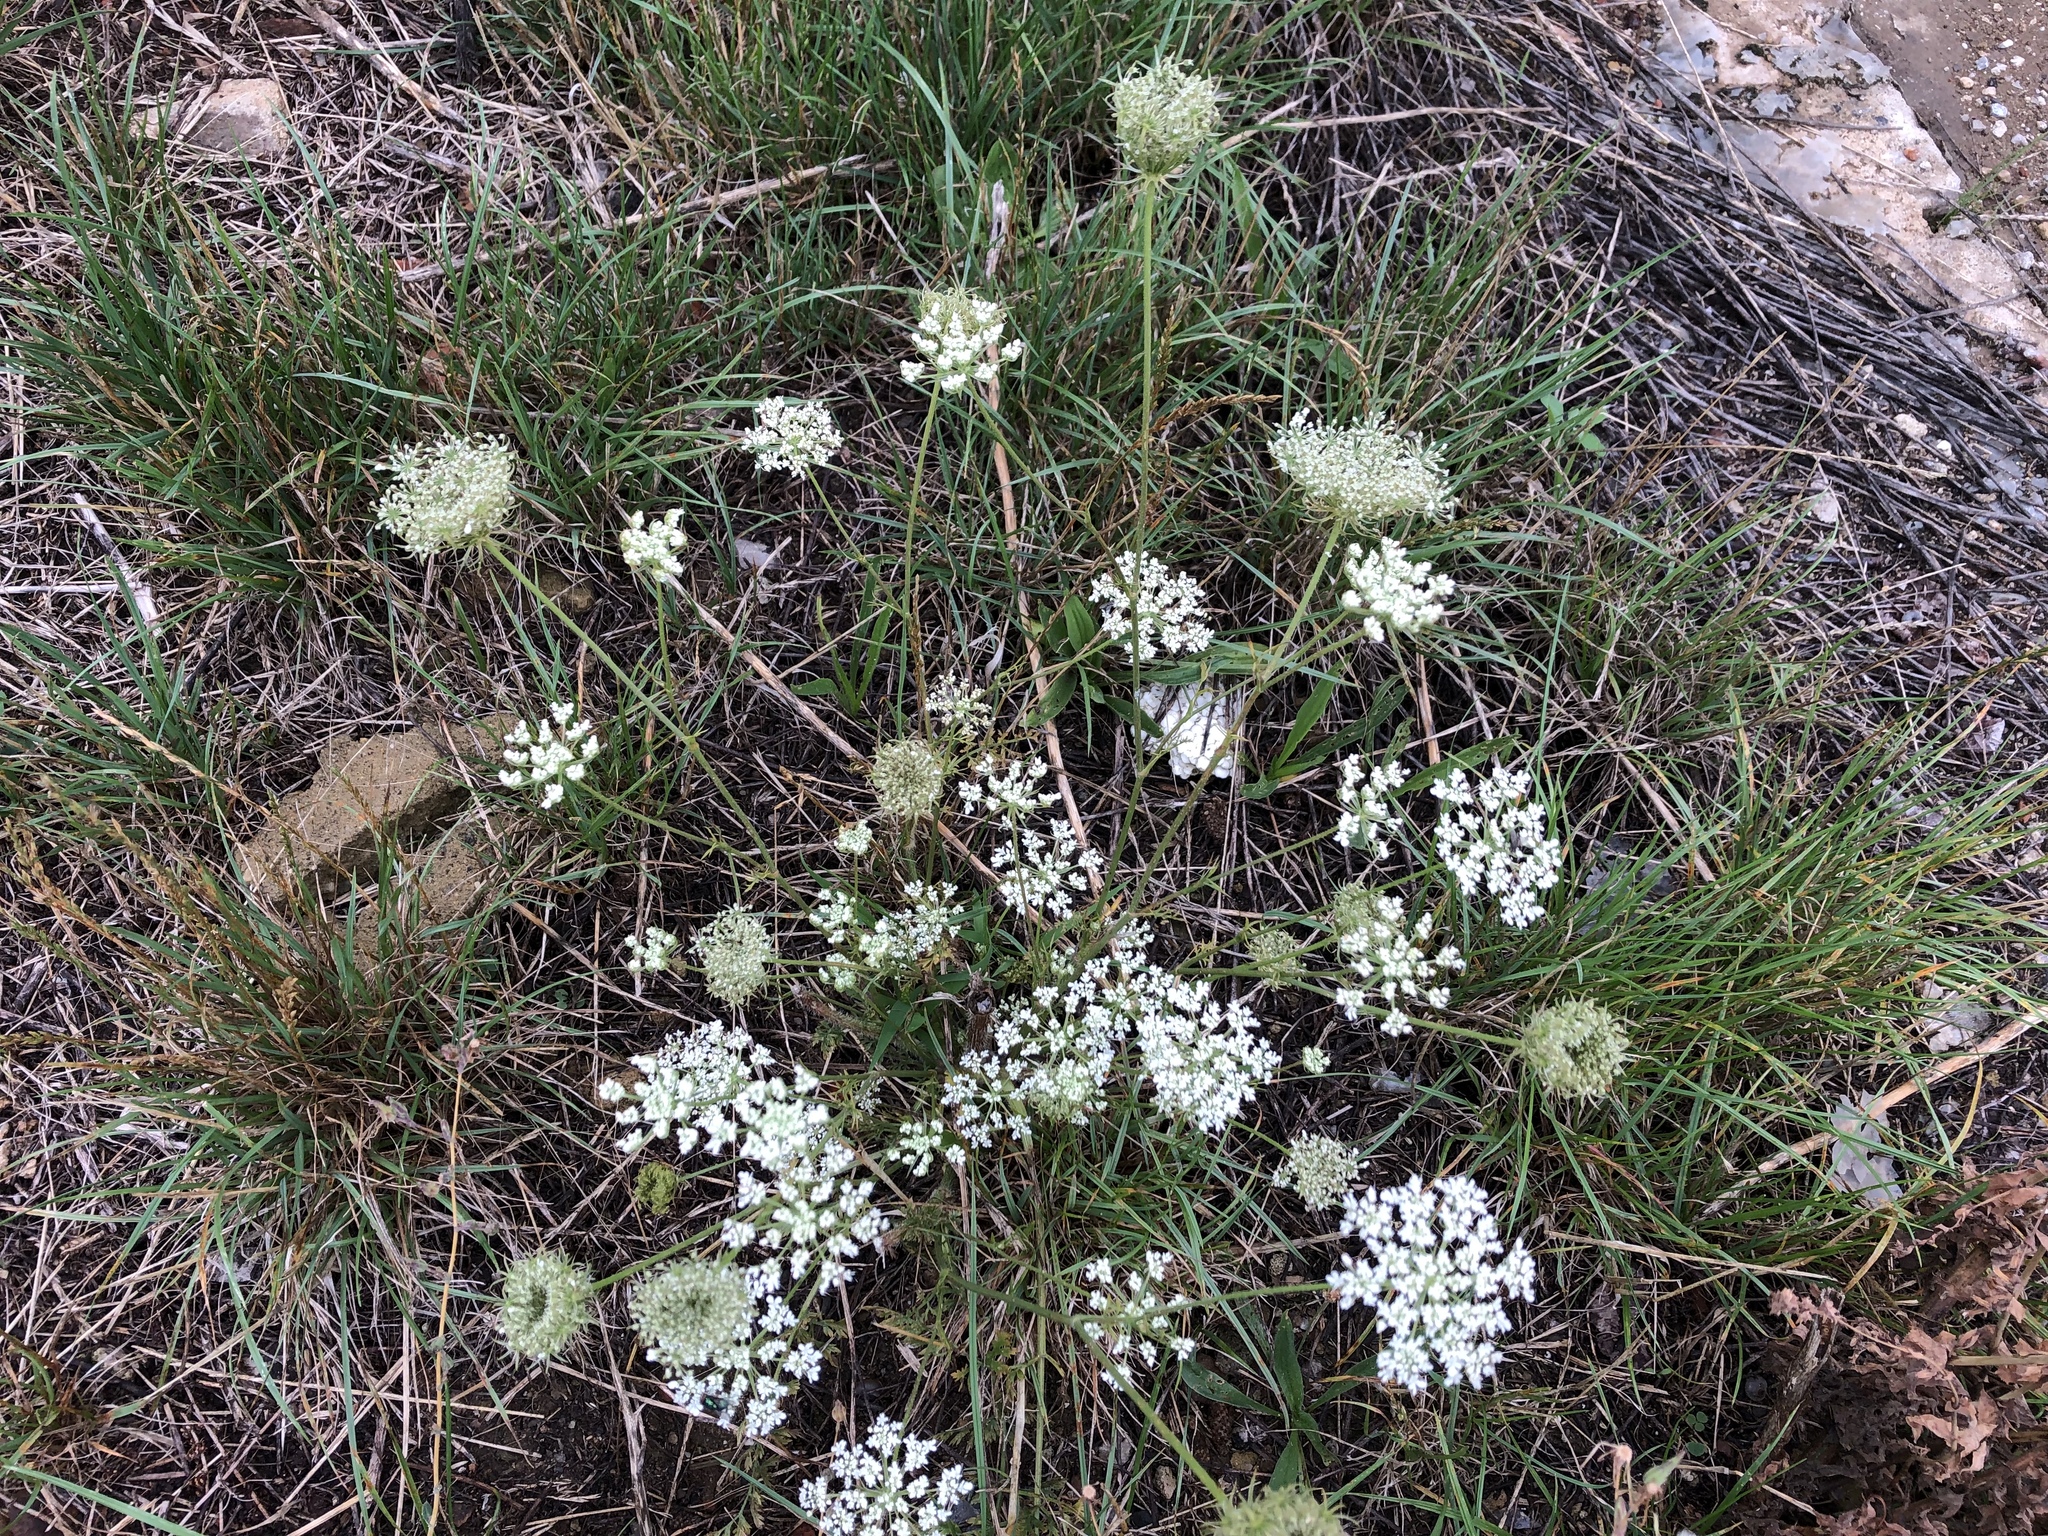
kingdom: Plantae
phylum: Tracheophyta
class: Magnoliopsida
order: Apiales
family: Apiaceae
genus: Daucus
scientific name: Daucus carota
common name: Wild carrot
